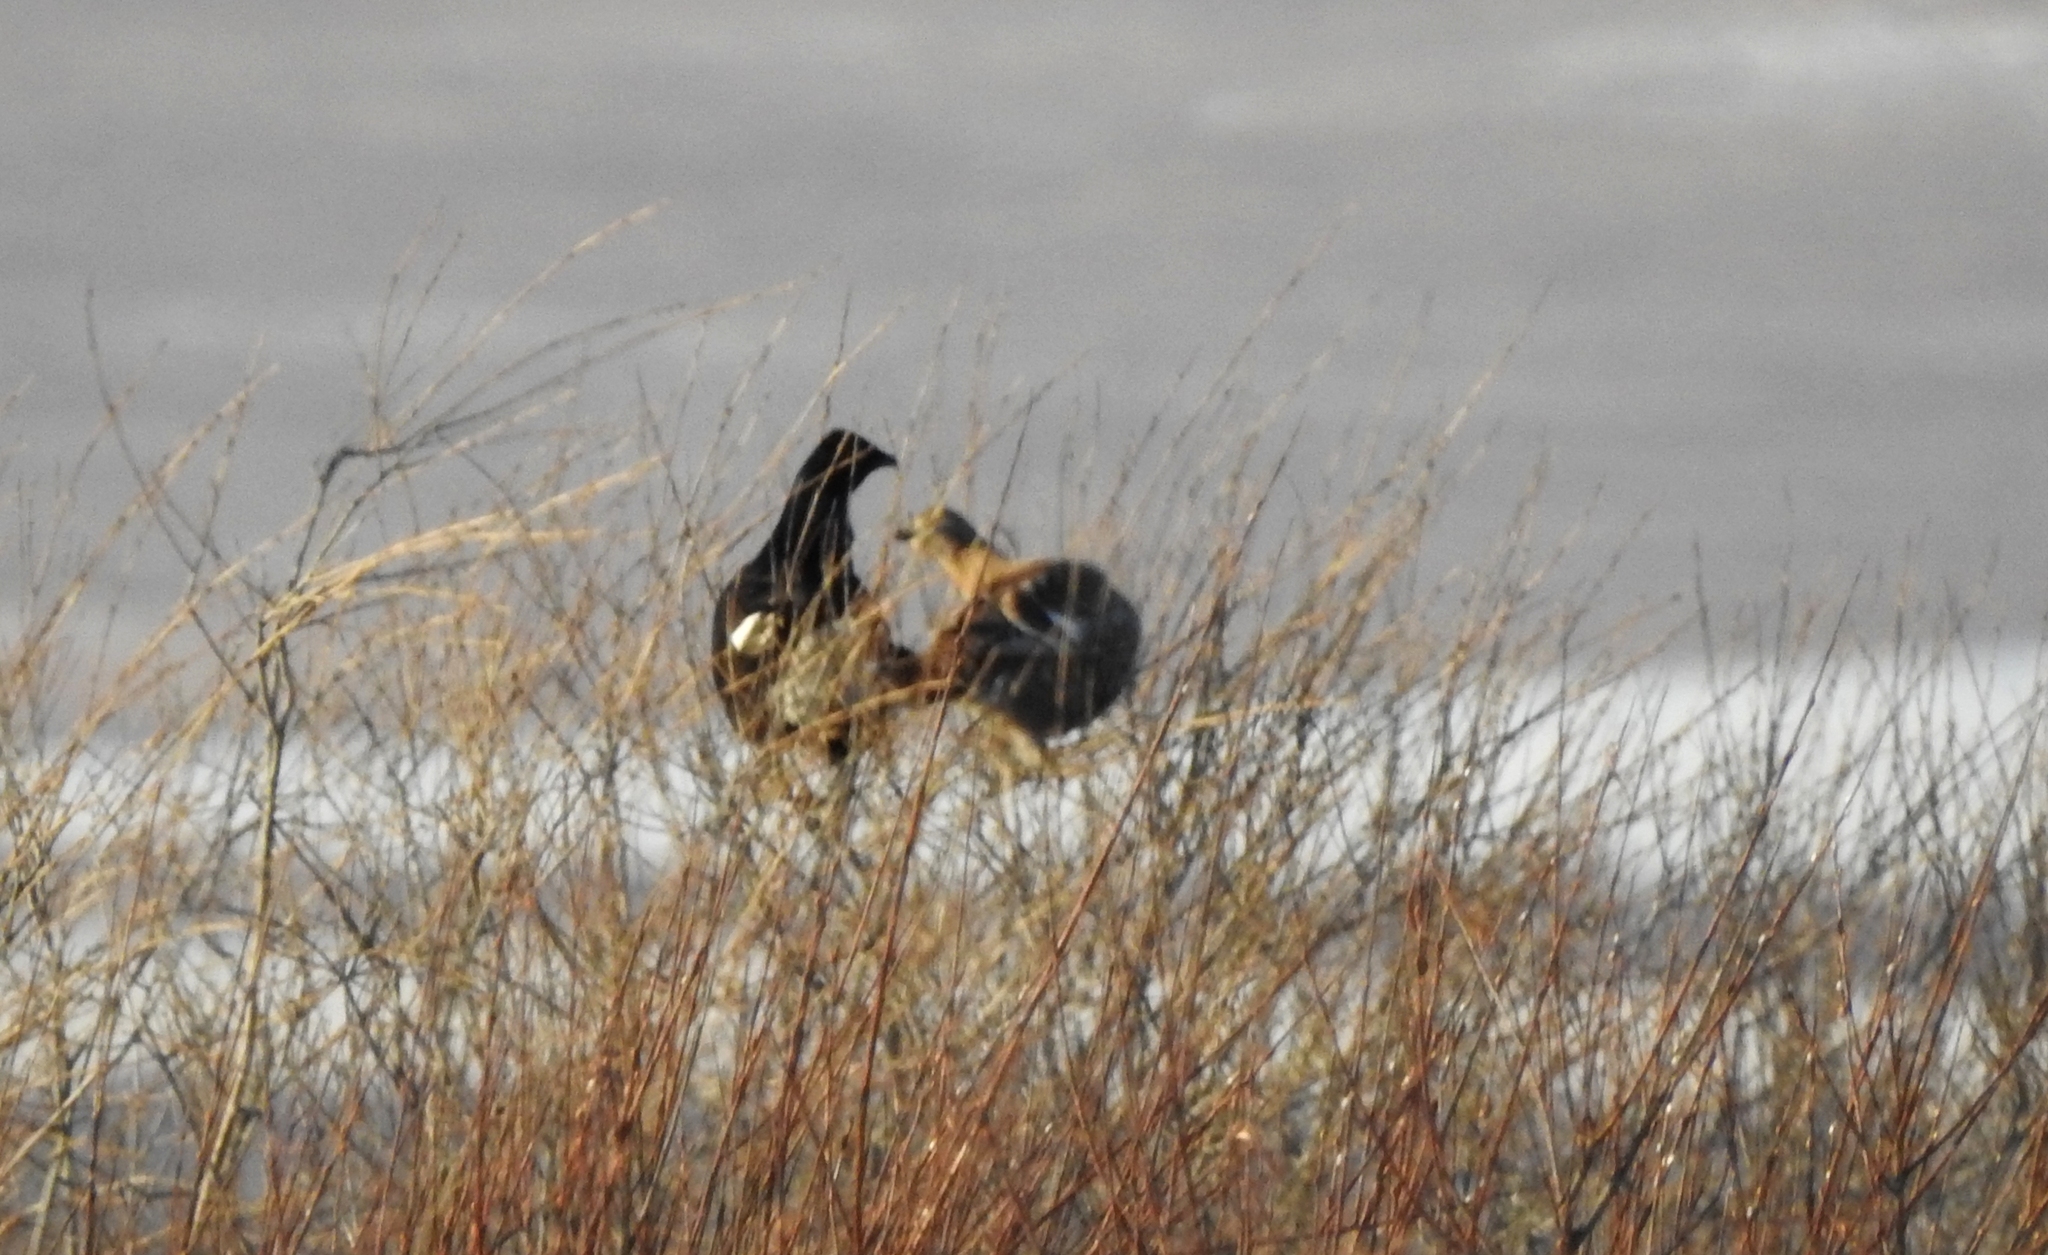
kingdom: Animalia
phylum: Chordata
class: Aves
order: Galliformes
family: Phasianidae
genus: Lyrurus
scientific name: Lyrurus tetrix
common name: Black grouse
